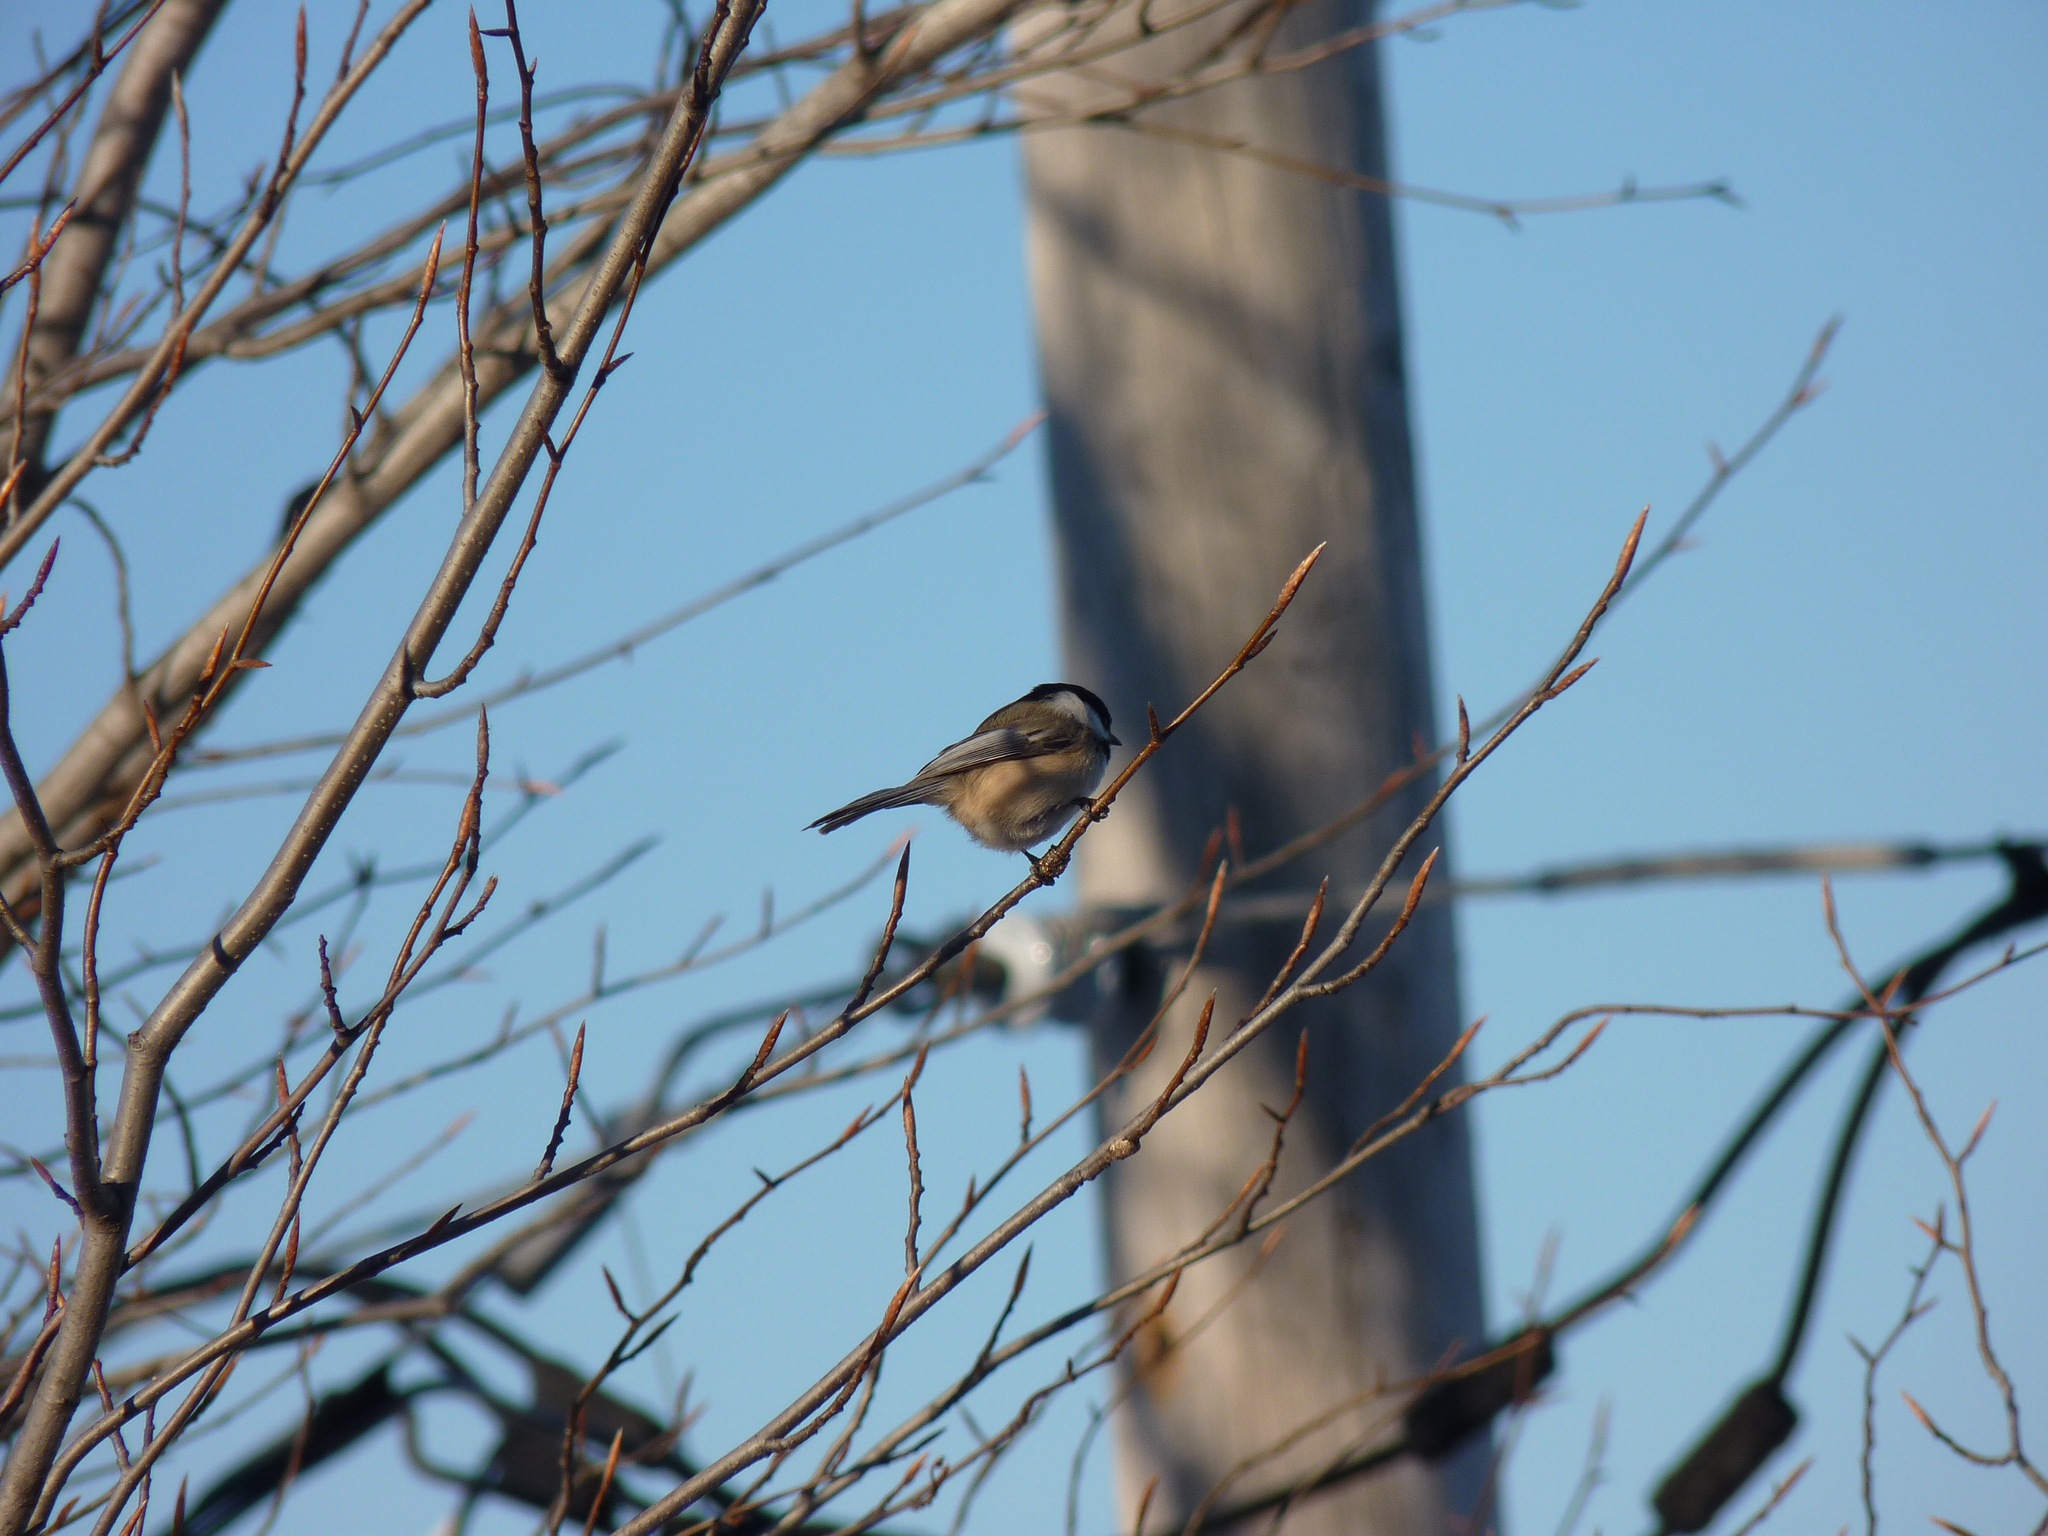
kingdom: Animalia
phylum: Chordata
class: Aves
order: Passeriformes
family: Paridae
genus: Poecile
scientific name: Poecile atricapillus
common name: Black-capped chickadee
